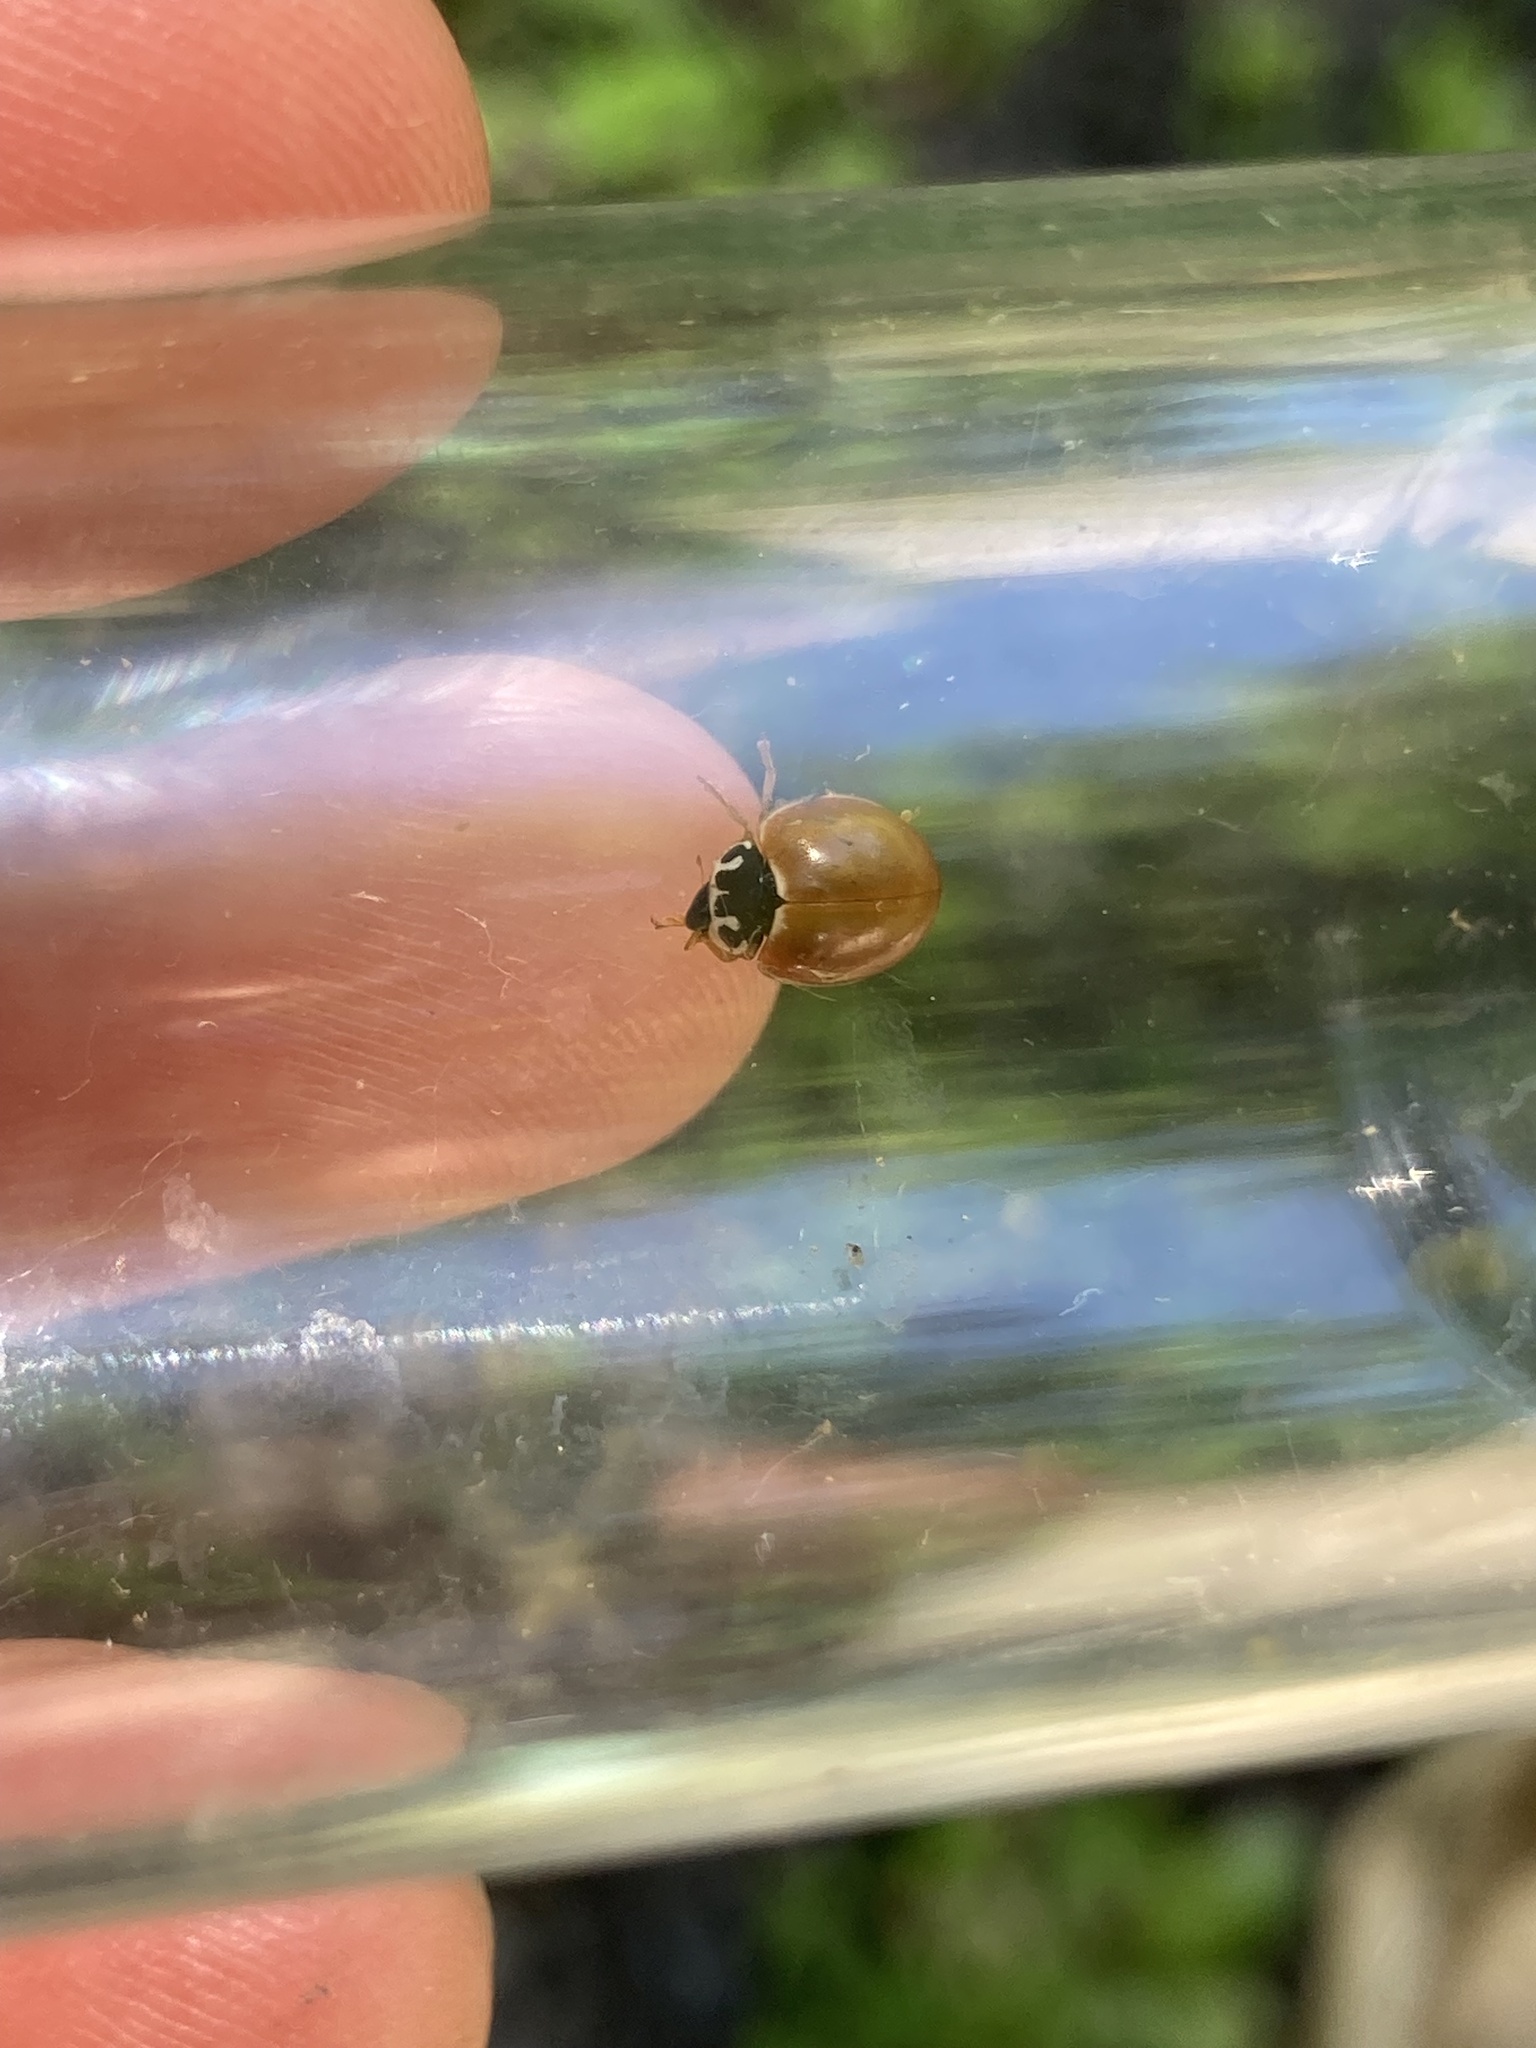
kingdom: Animalia
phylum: Arthropoda
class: Insecta
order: Coleoptera
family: Coccinellidae
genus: Cycloneda
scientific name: Cycloneda munda
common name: Polished lady beetle
